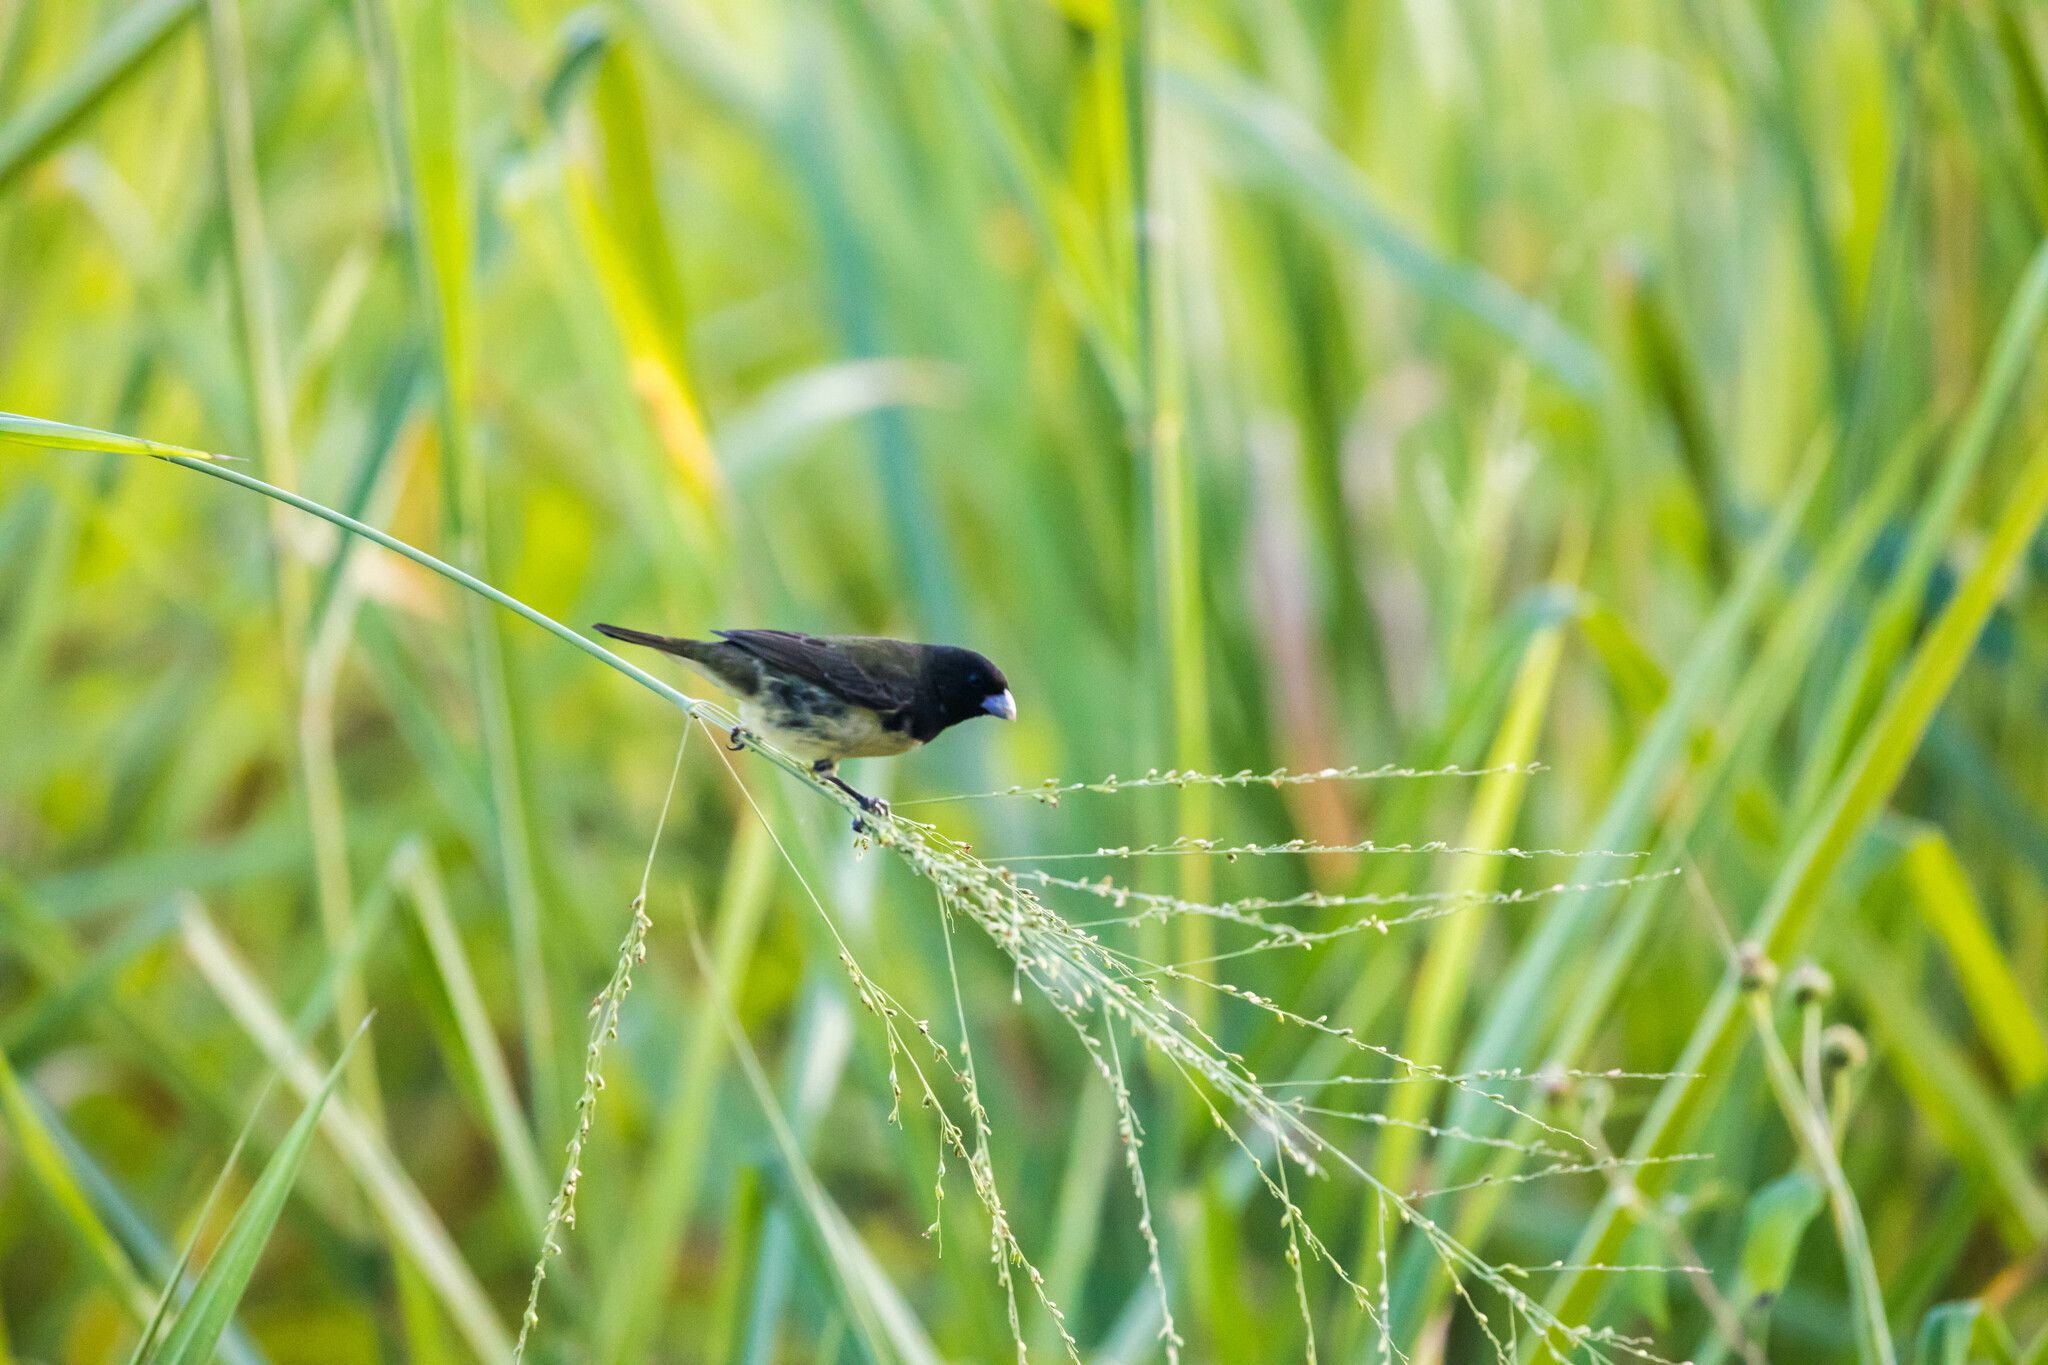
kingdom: Animalia
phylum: Chordata
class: Aves
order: Passeriformes
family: Thraupidae
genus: Sporophila
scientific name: Sporophila nigricollis
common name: Yellow-bellied seedeater
